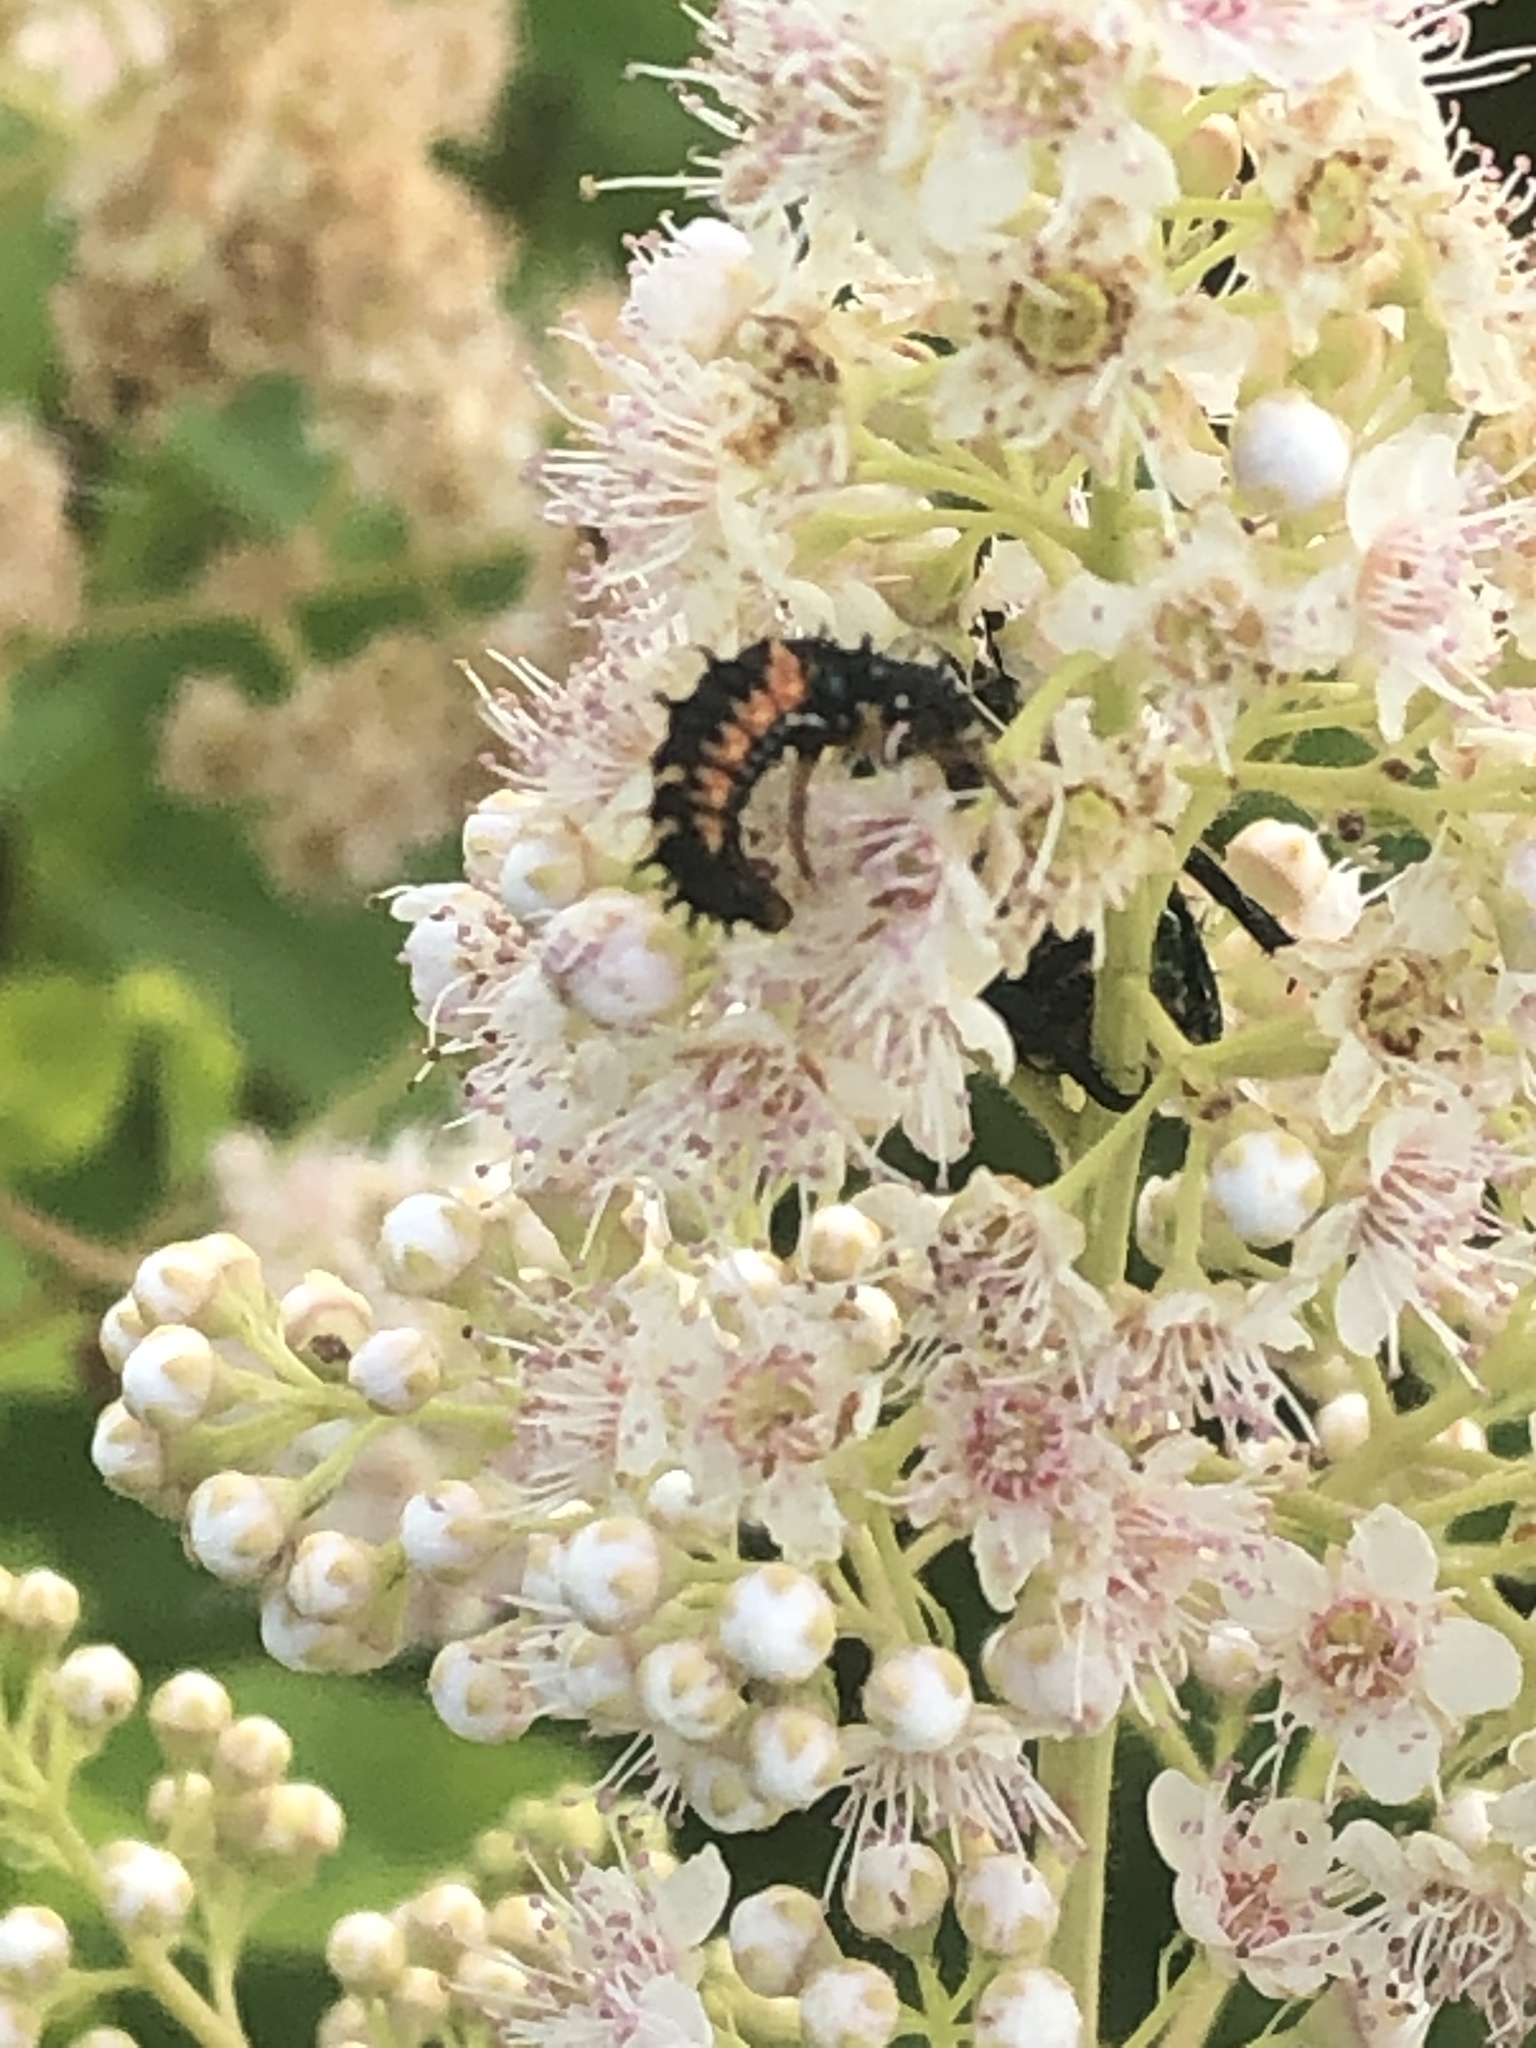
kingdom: Animalia
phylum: Arthropoda
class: Insecta
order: Coleoptera
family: Coccinellidae
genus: Harmonia
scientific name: Harmonia axyridis
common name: Harlequin ladybird
